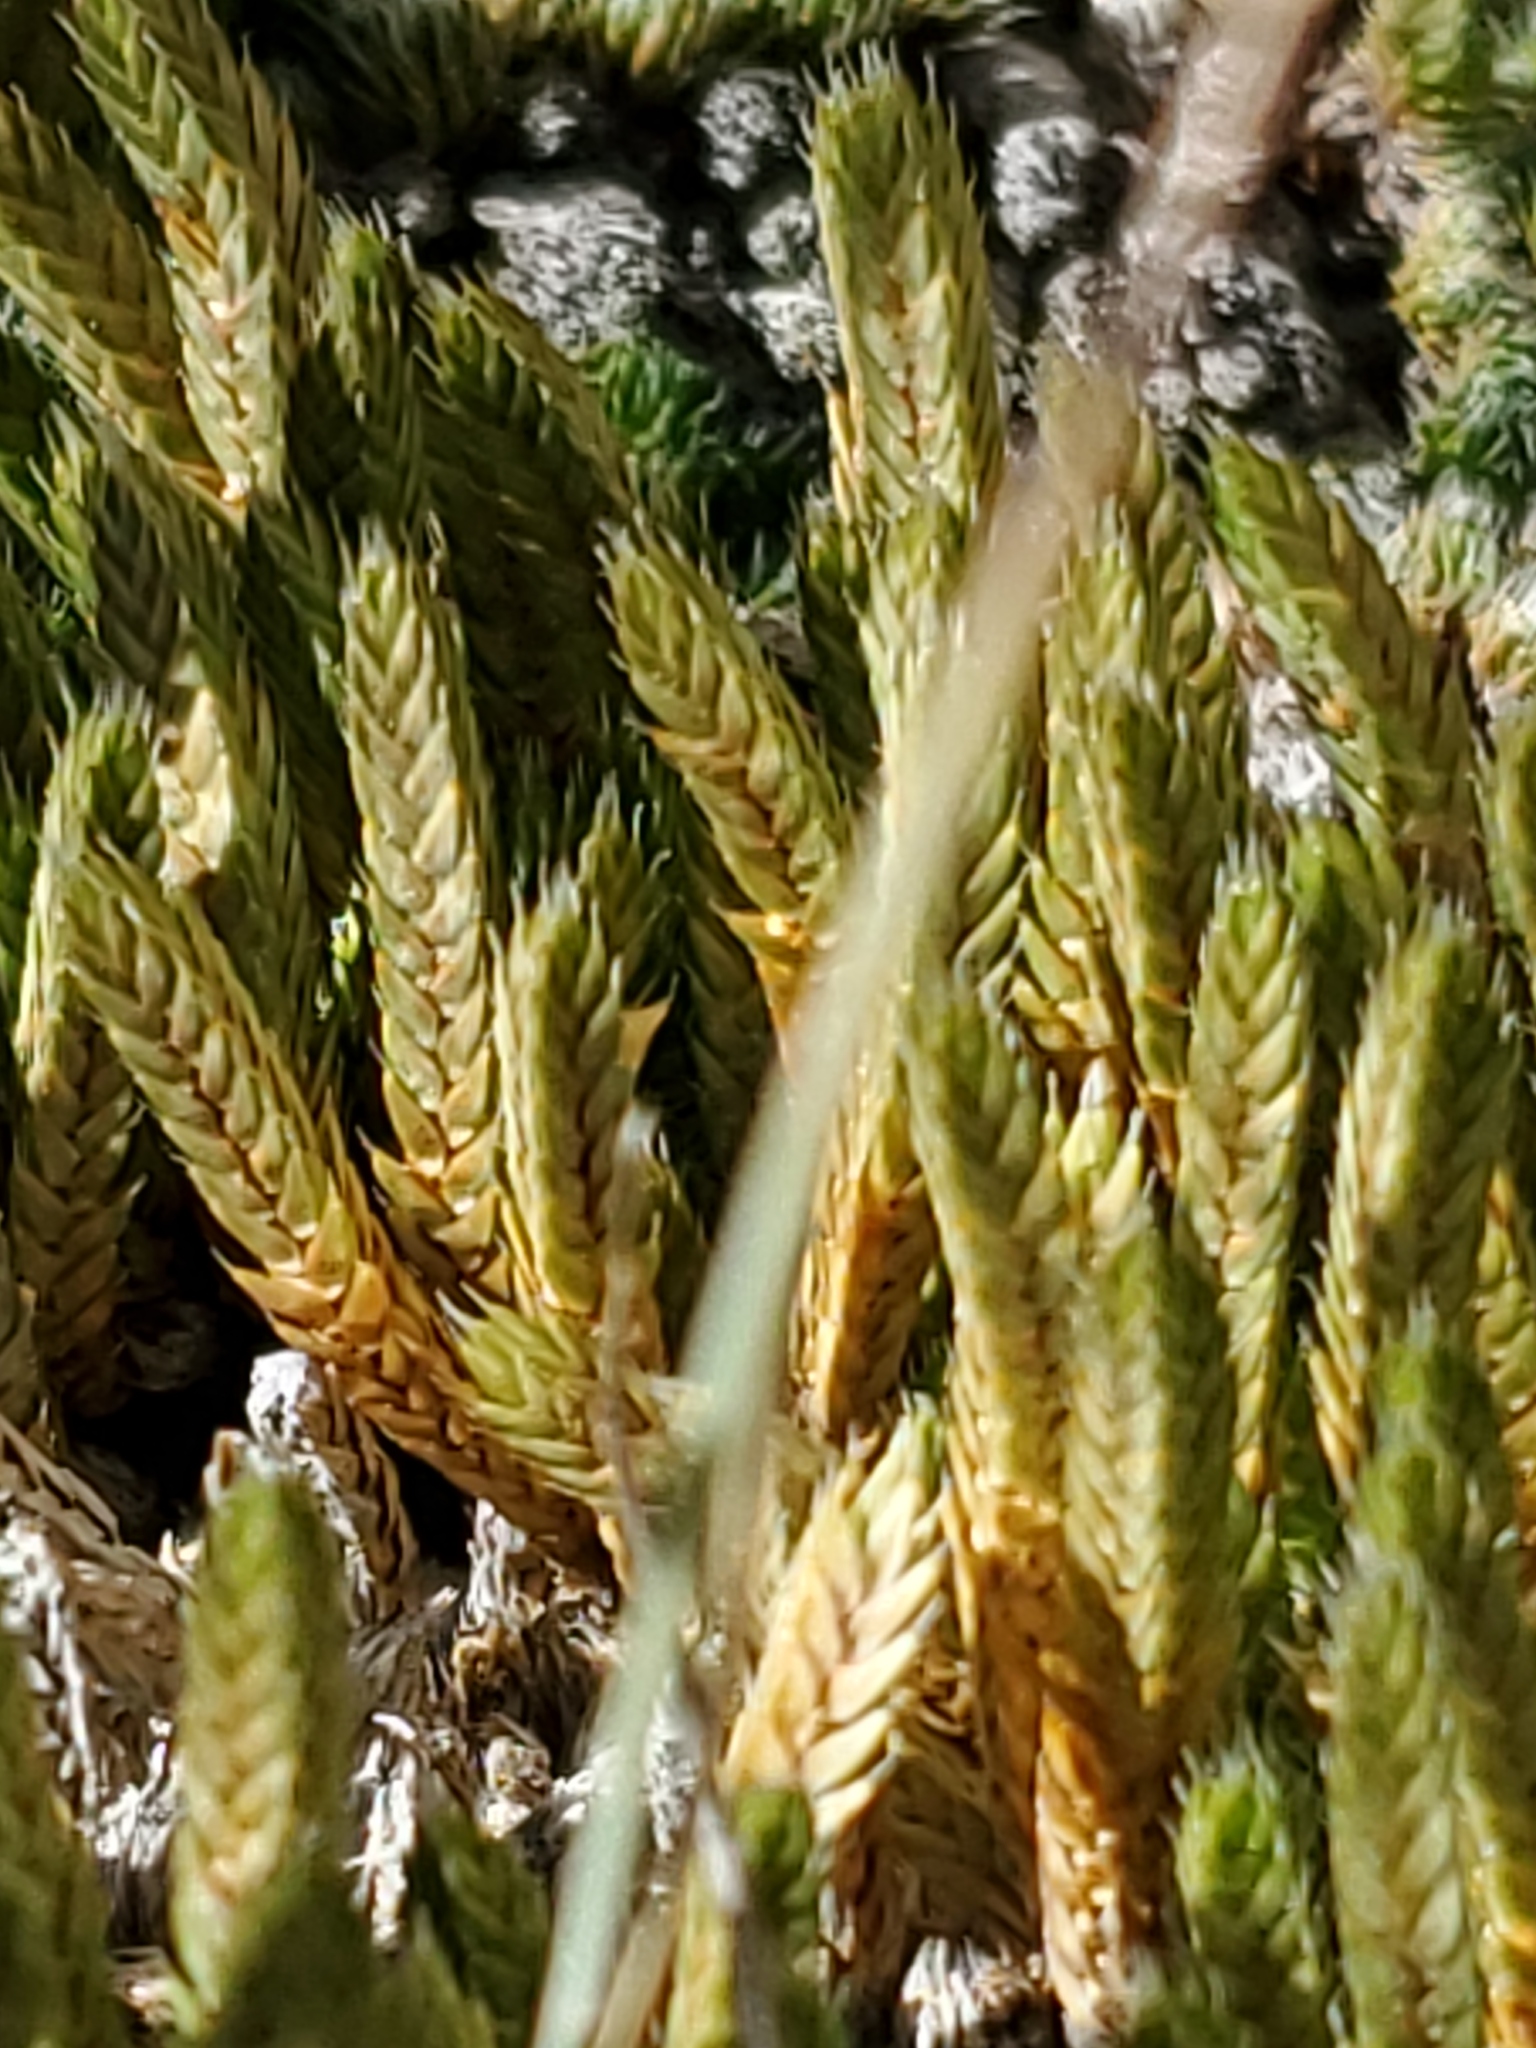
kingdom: Plantae
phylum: Tracheophyta
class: Lycopodiopsida
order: Selaginellales
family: Selaginellaceae
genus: Selaginella
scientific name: Selaginella densa
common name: Mountain spike-moss
